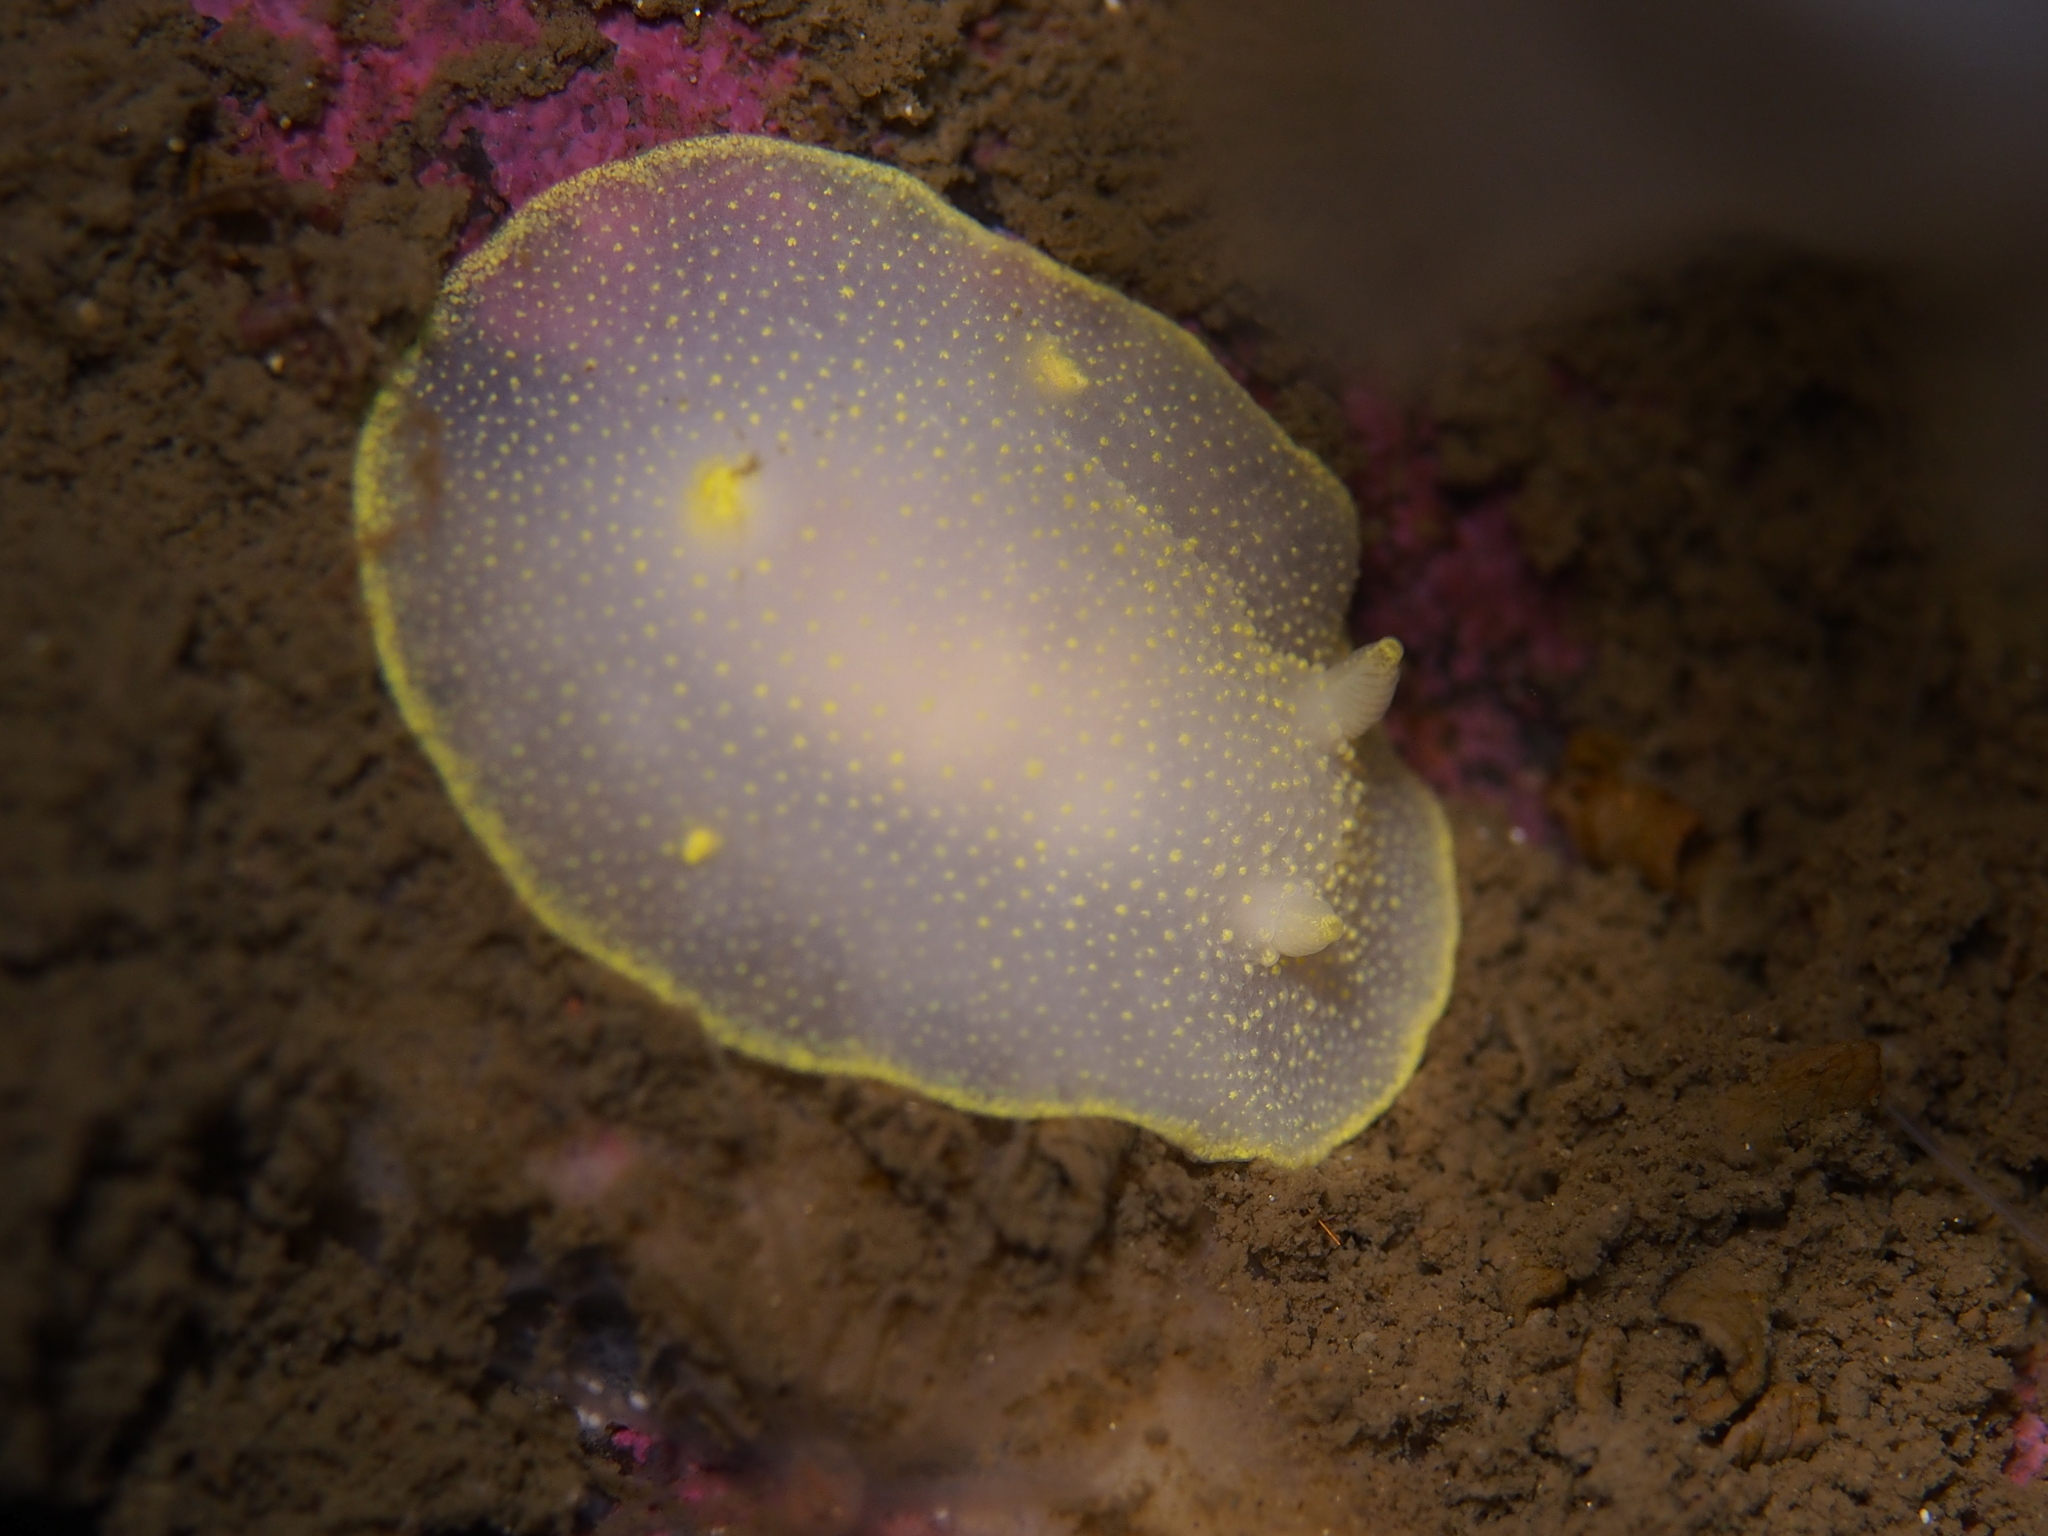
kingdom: Animalia
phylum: Mollusca
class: Gastropoda
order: Nudibranchia
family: Cadlinidae
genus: Cadlina
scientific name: Cadlina laevis
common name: White atlantic cadlina
